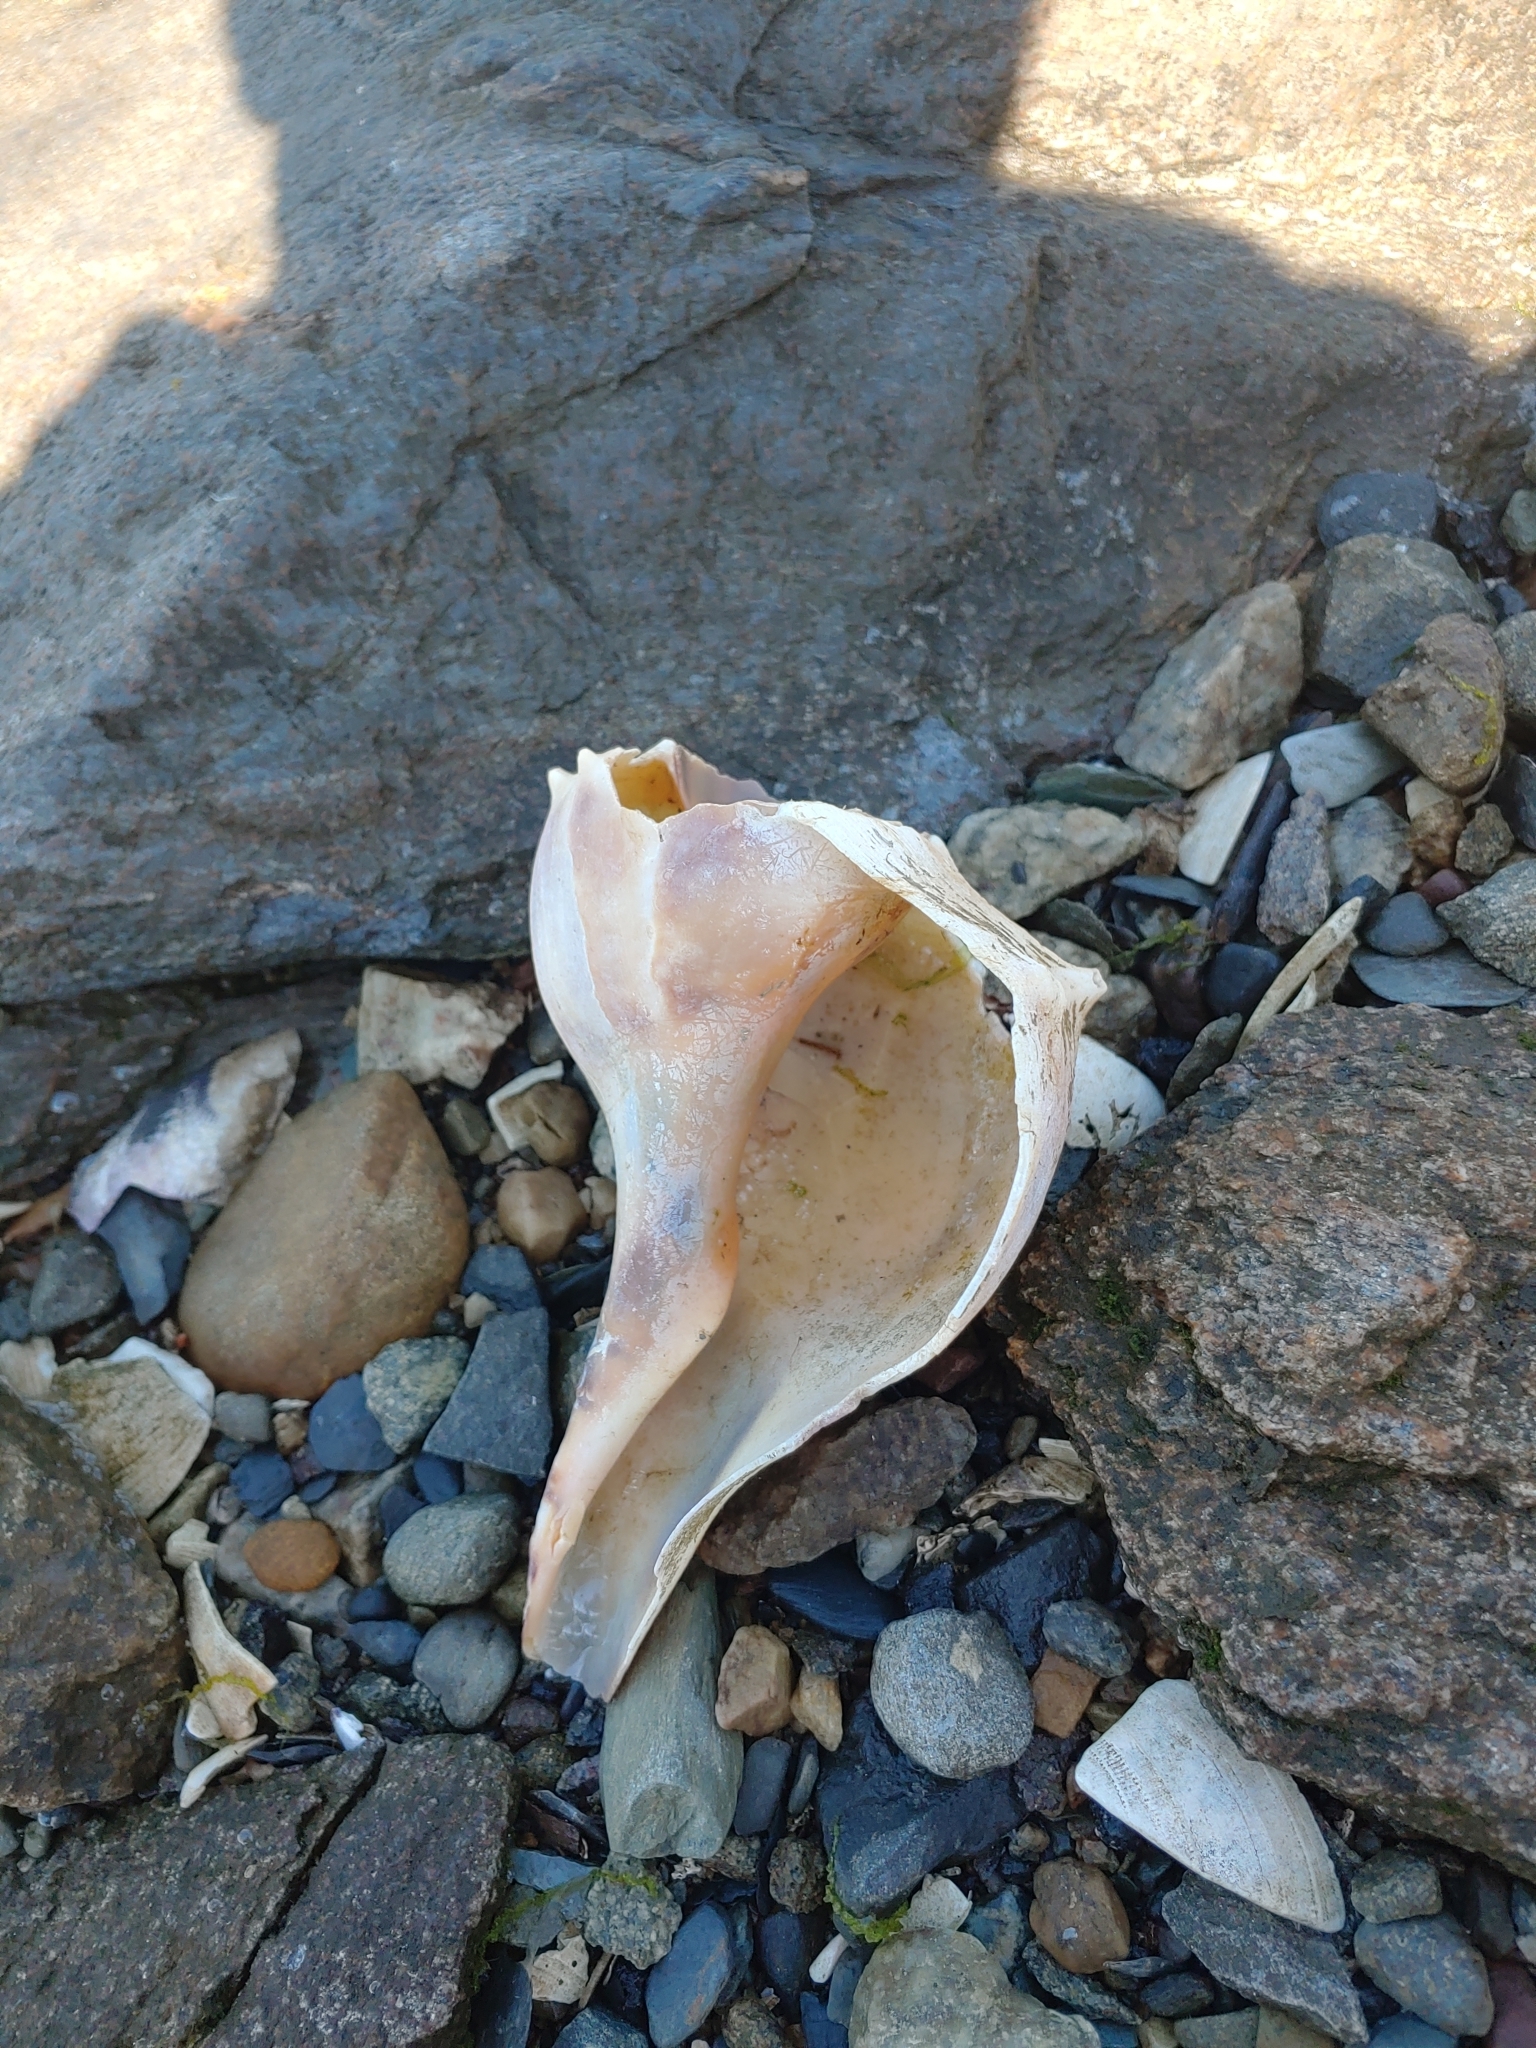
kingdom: Animalia
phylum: Mollusca
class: Gastropoda
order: Neogastropoda
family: Busyconidae
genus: Busycon
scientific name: Busycon carica
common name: Knobbed whelk
